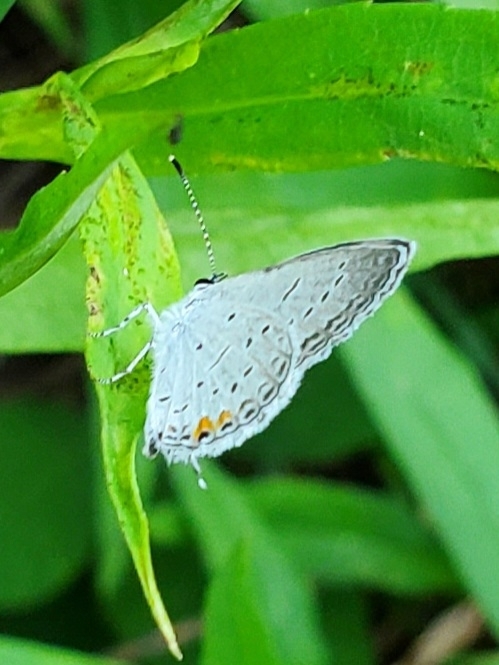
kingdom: Animalia
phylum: Arthropoda
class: Insecta
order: Lepidoptera
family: Lycaenidae
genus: Elkalyce
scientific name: Elkalyce comyntas
